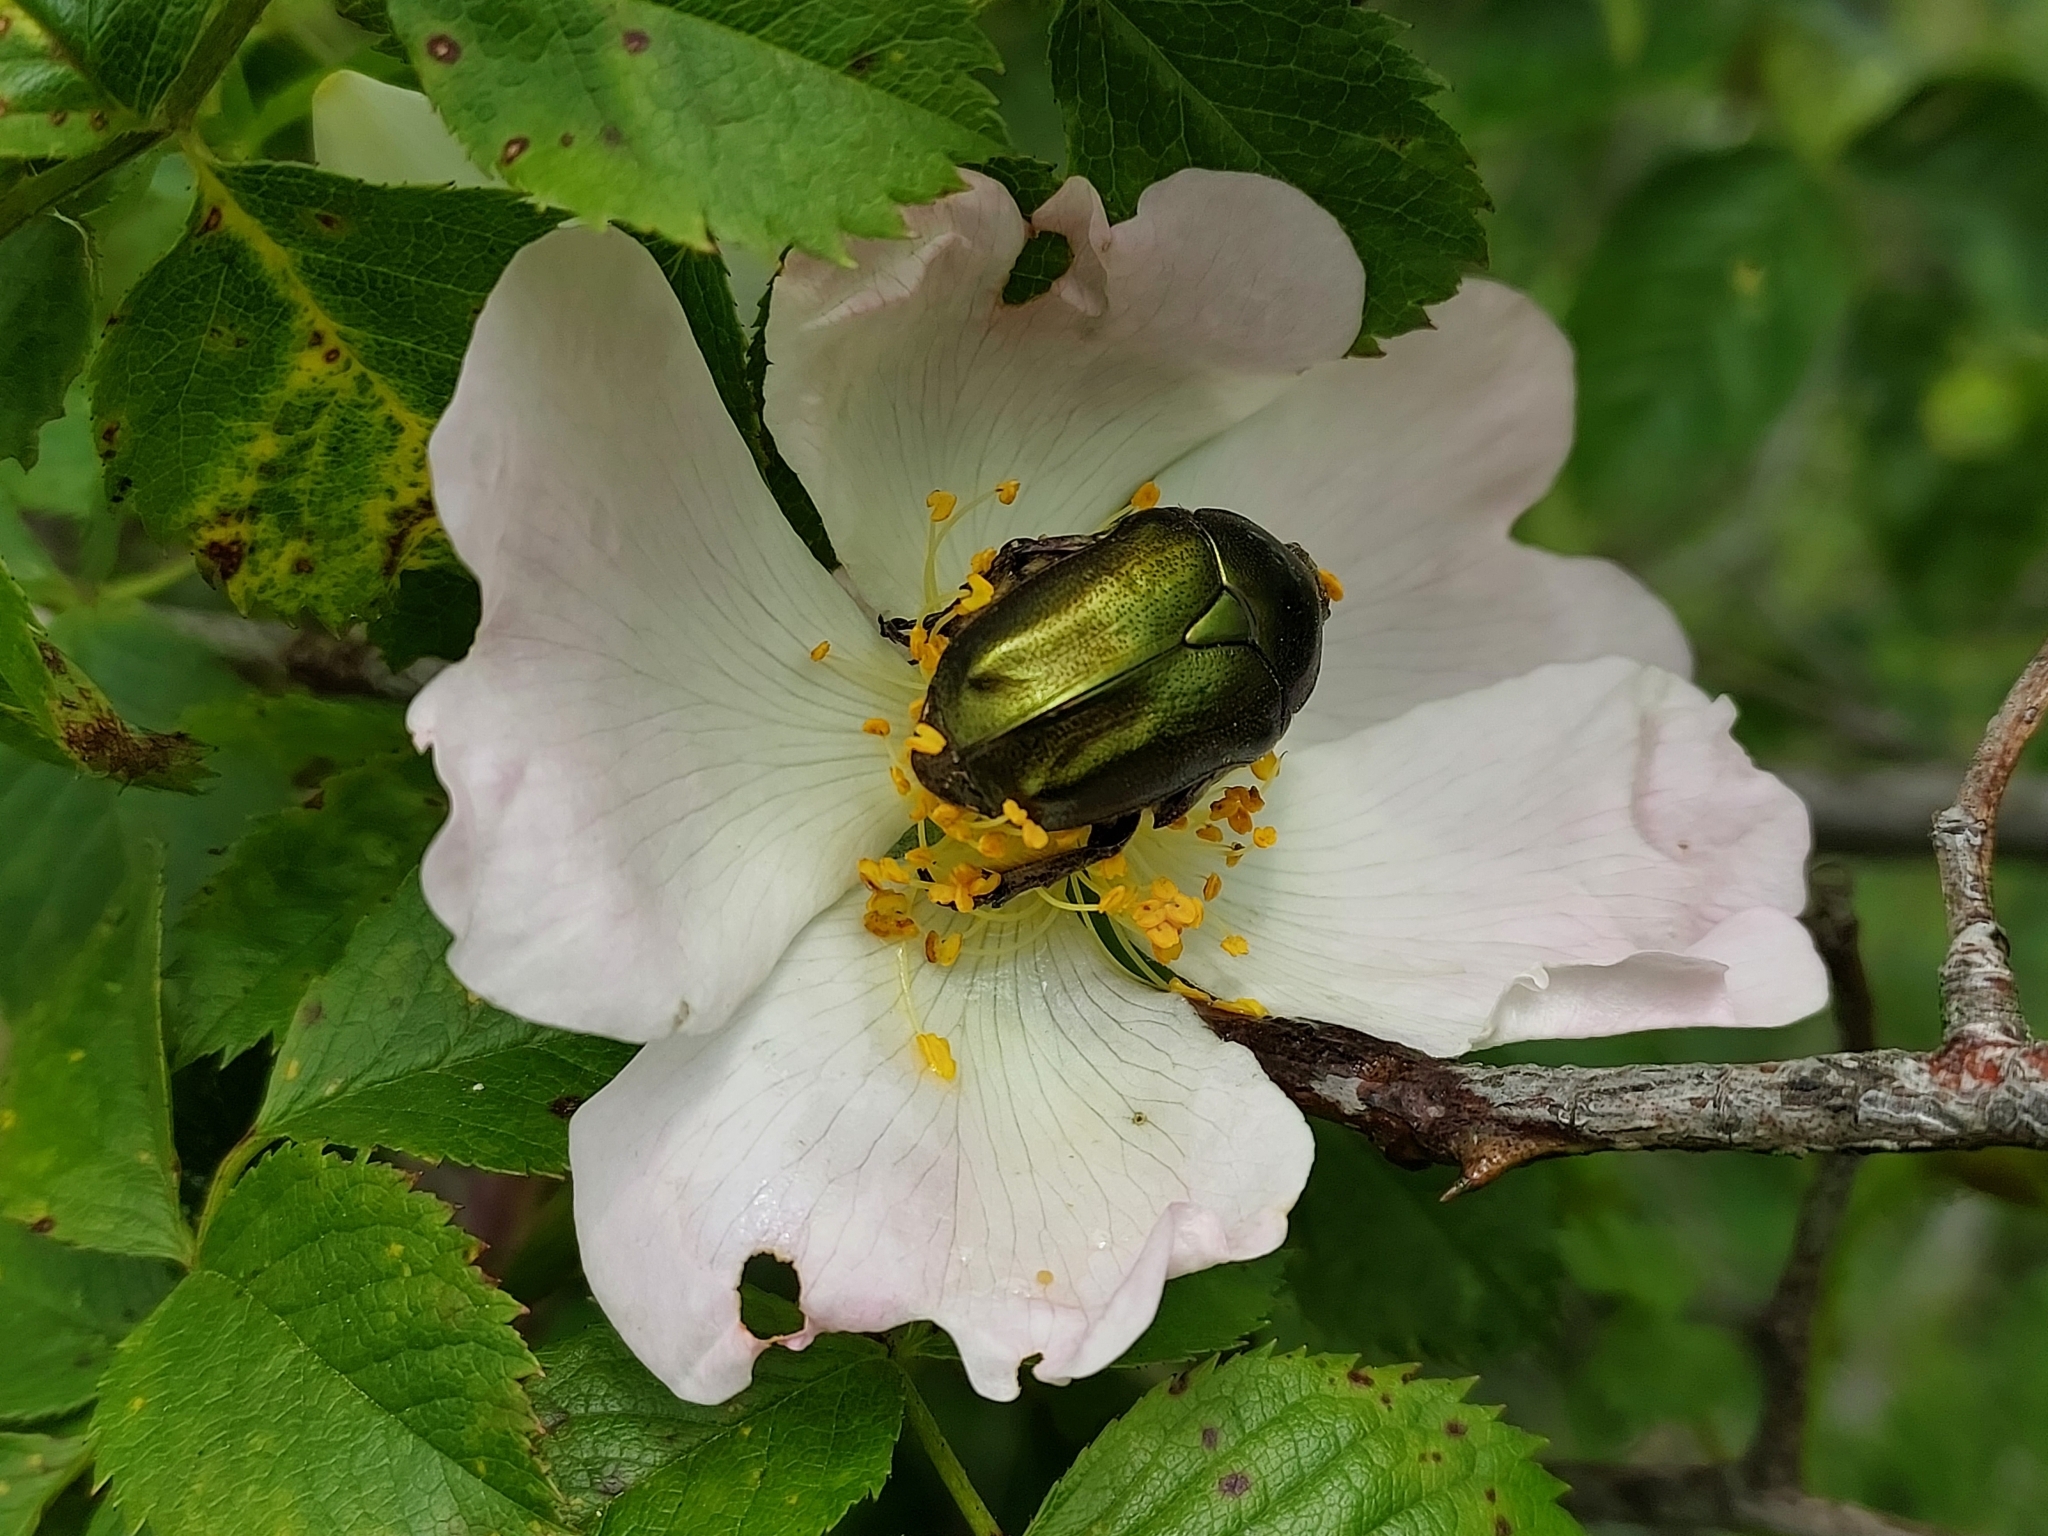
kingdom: Animalia
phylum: Arthropoda
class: Insecta
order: Coleoptera
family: Scarabaeidae
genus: Protaetia
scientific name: Protaetia cuprea
